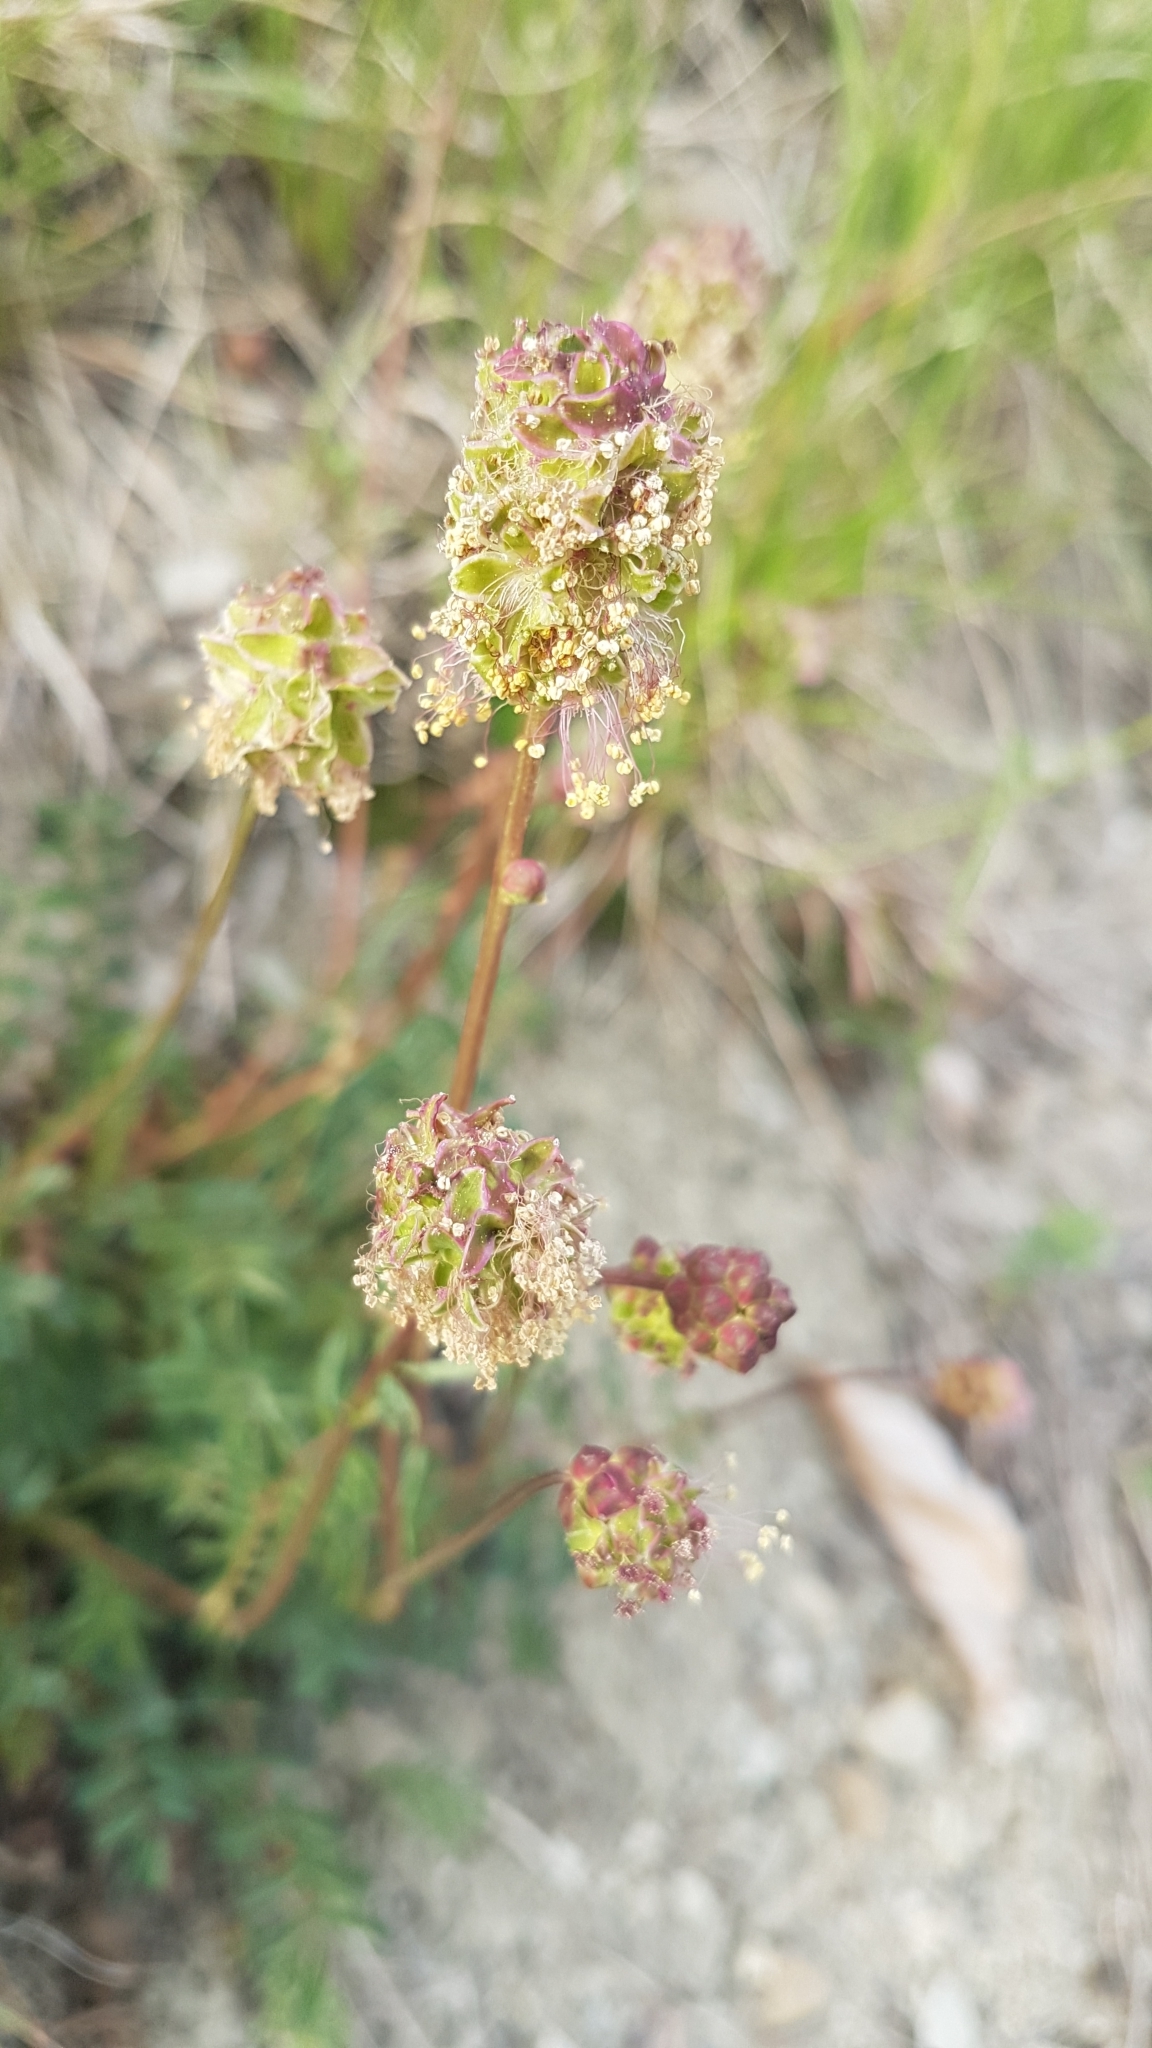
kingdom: Plantae
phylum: Tracheophyta
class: Magnoliopsida
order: Rosales
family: Rosaceae
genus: Poterium
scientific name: Poterium sanguisorba
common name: Salad burnet
